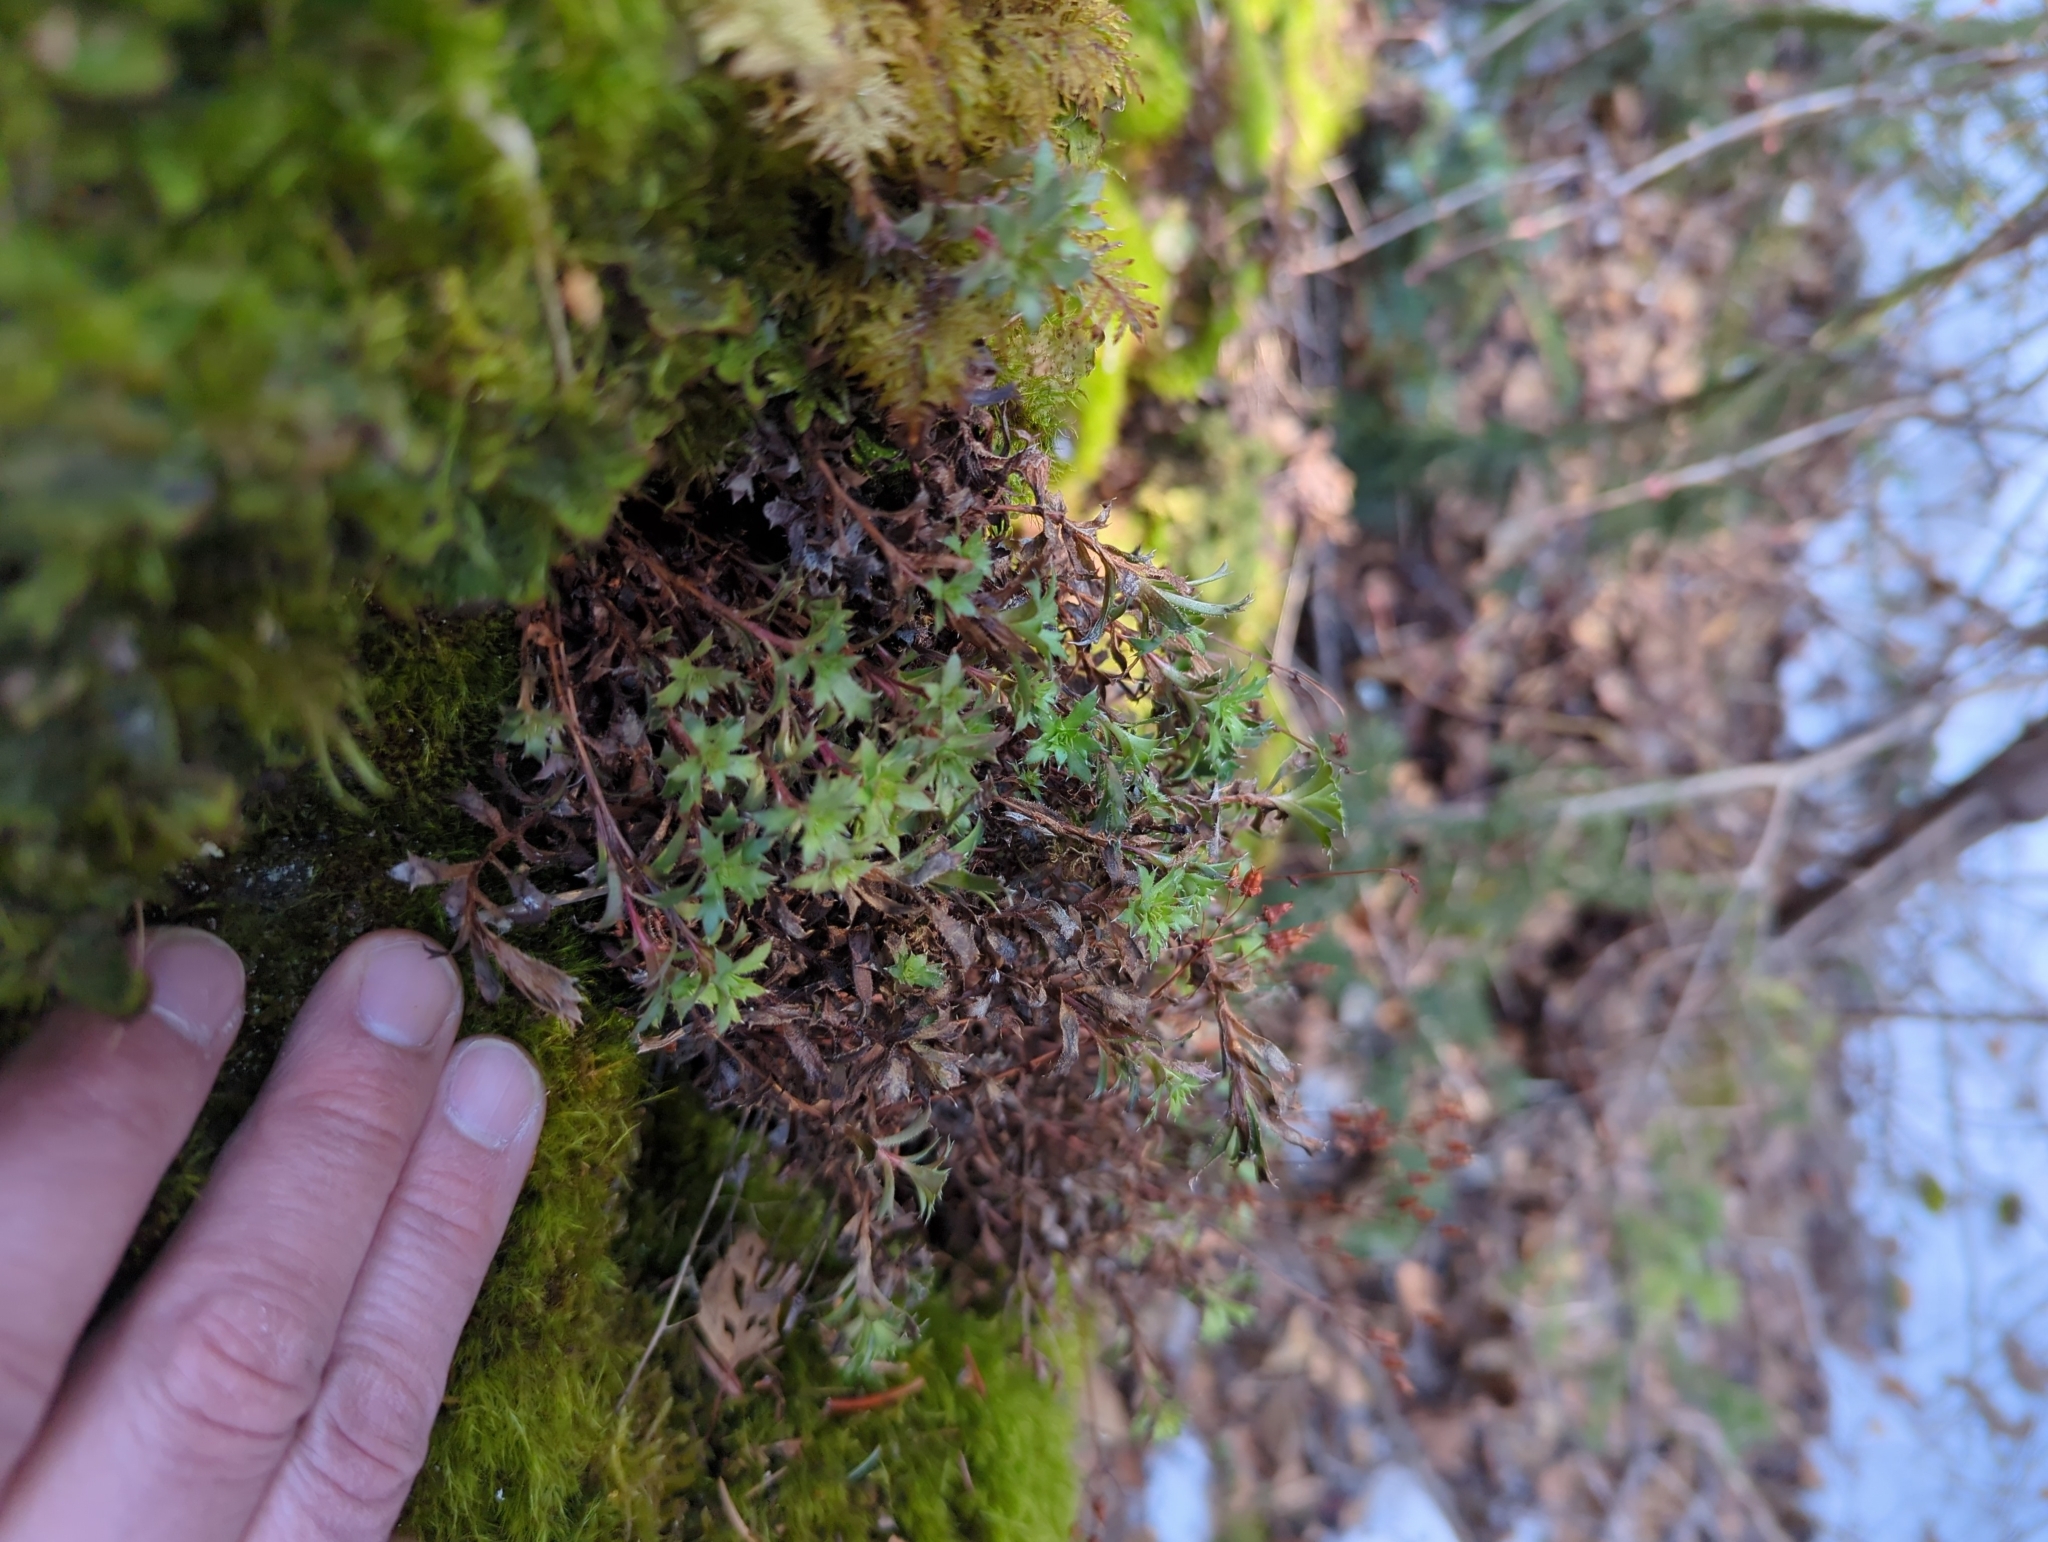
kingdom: Plantae
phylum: Tracheophyta
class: Magnoliopsida
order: Saxifragales
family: Saxifragaceae
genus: Saxifraga
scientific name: Saxifraga tricuspidata
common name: Prickly saxifrage
